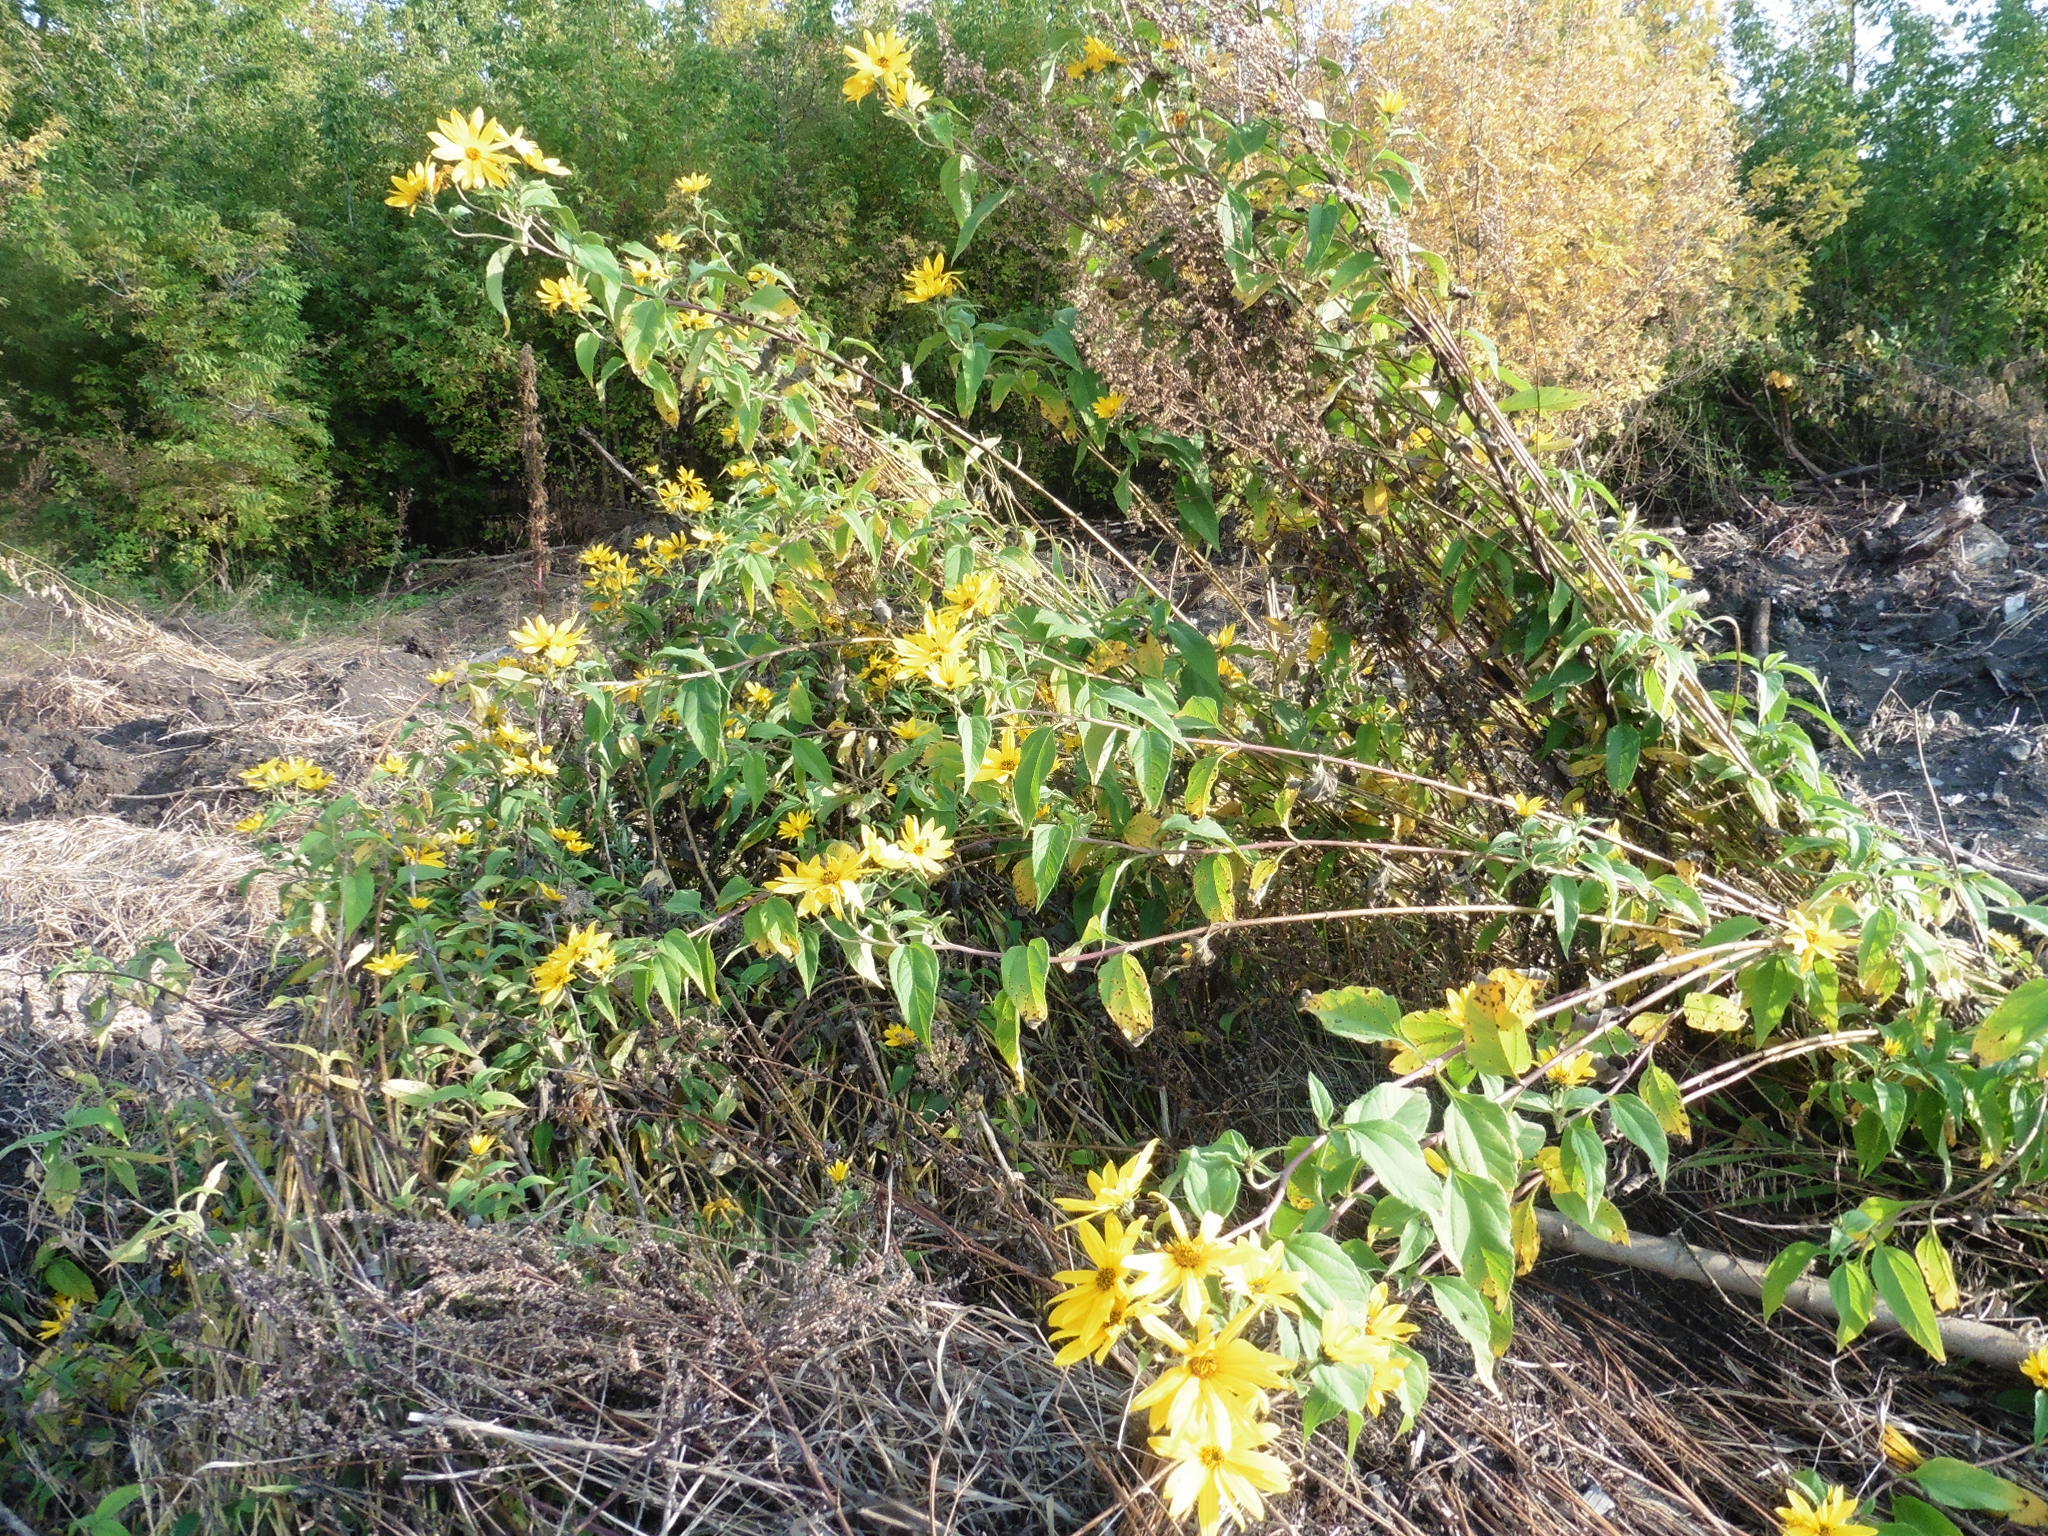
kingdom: Plantae
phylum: Tracheophyta
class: Magnoliopsida
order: Asterales
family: Asteraceae
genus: Helianthus
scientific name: Helianthus tuberosus
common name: Jerusalem artichoke
